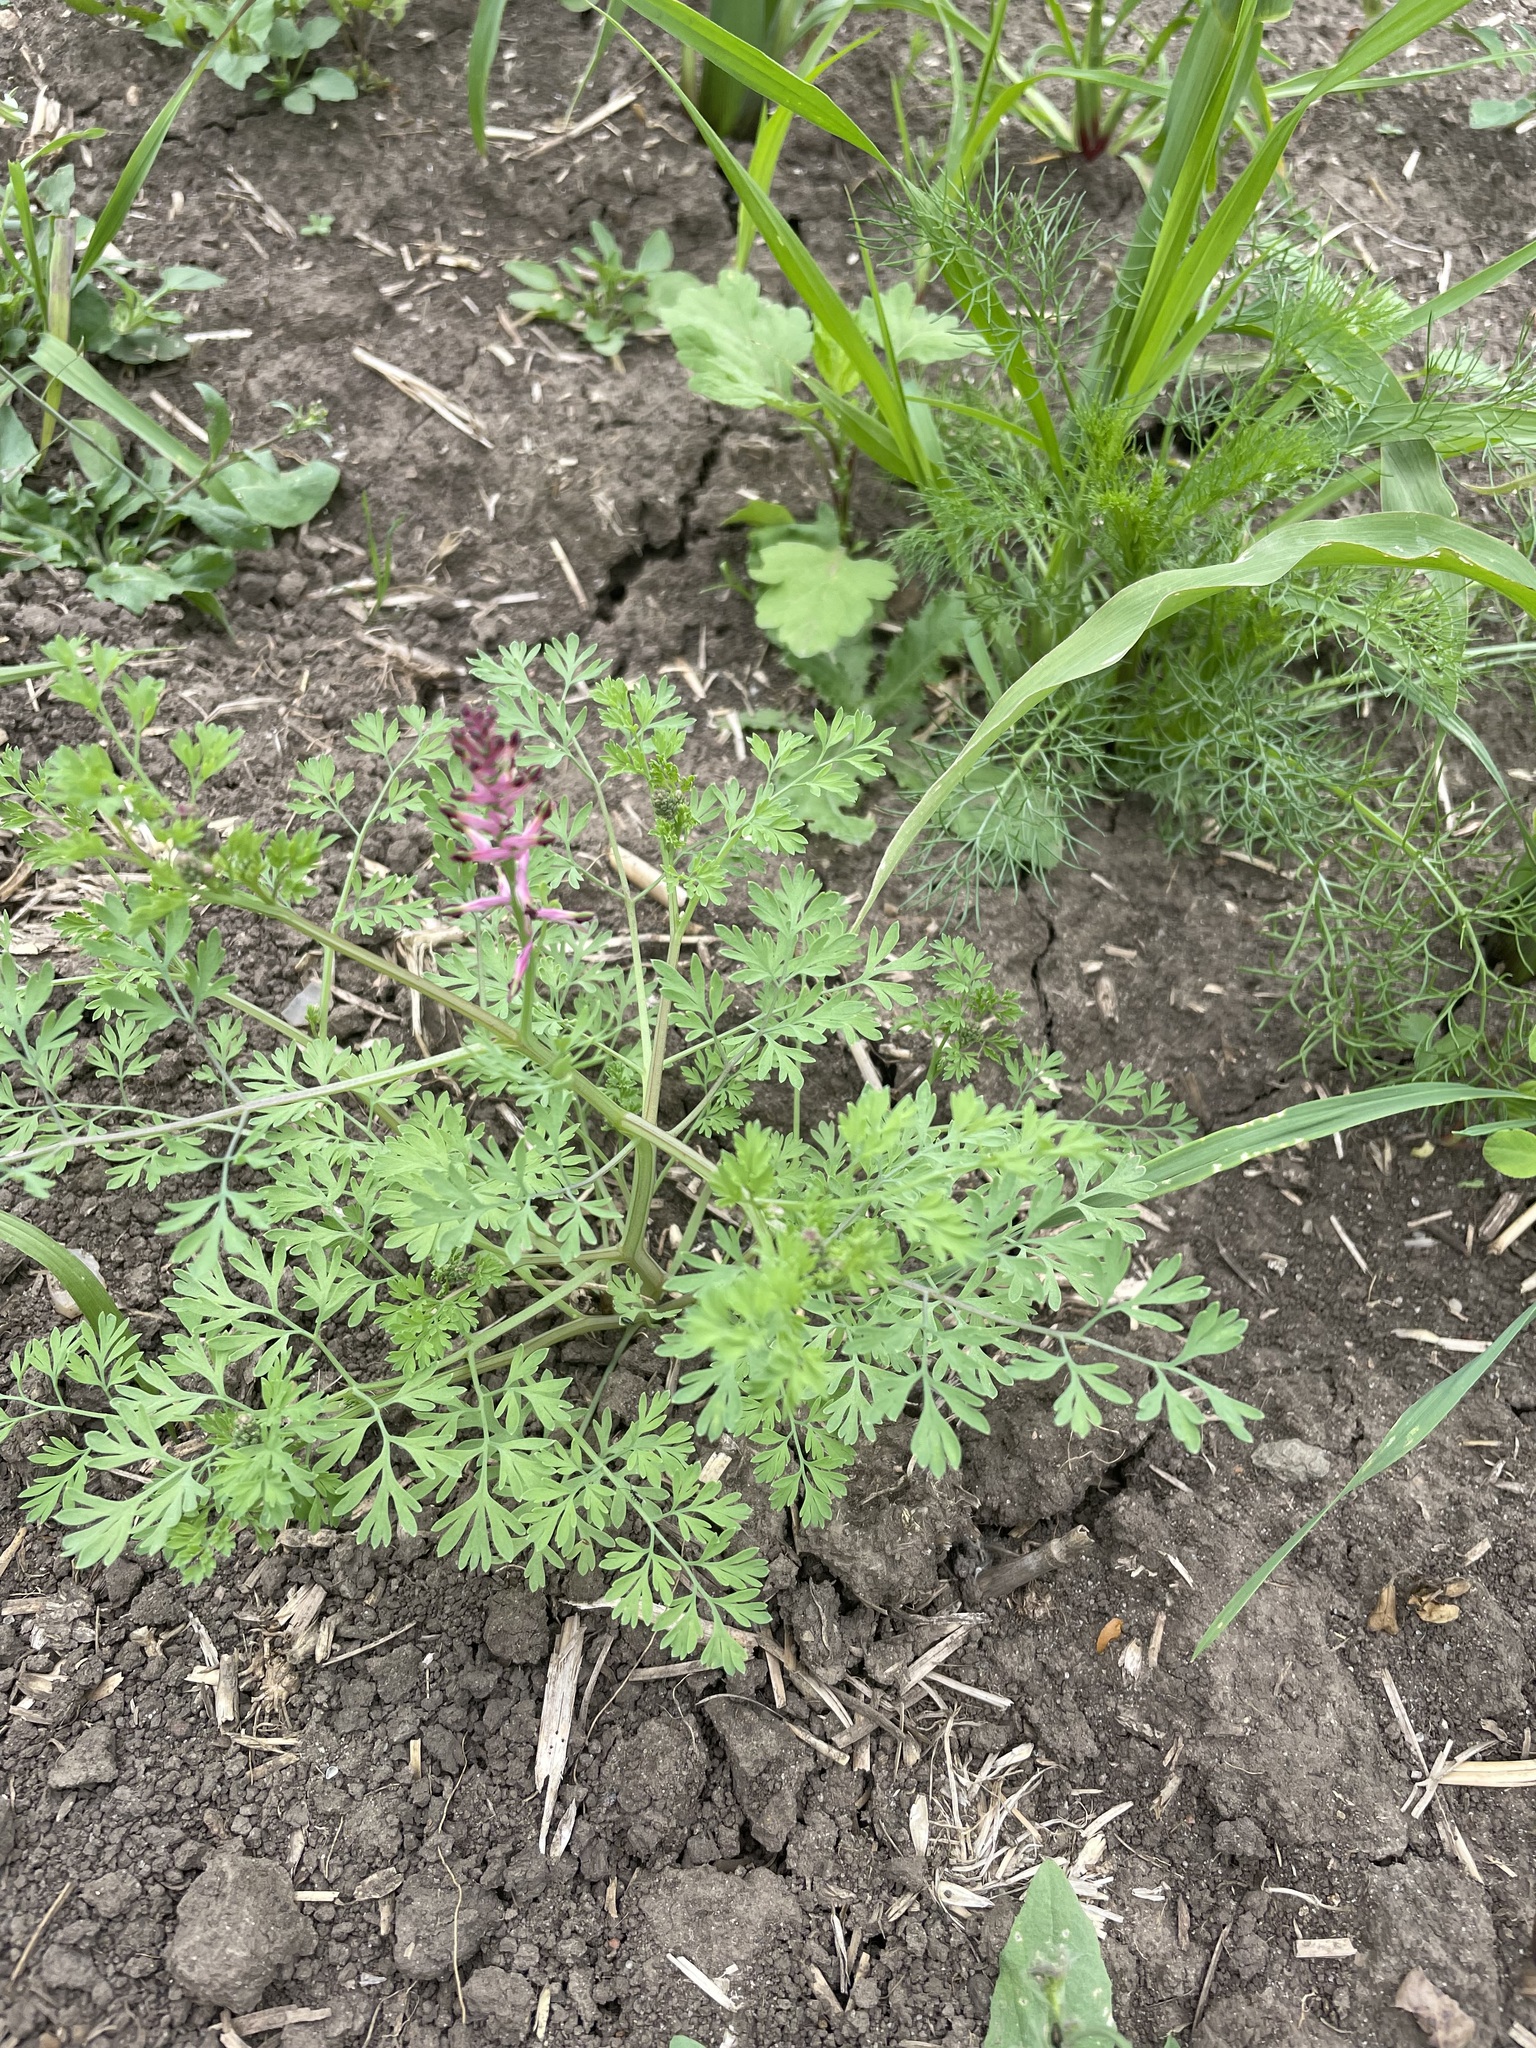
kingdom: Plantae
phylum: Tracheophyta
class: Magnoliopsida
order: Ranunculales
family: Papaveraceae
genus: Fumaria
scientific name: Fumaria officinalis
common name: Common fumitory
